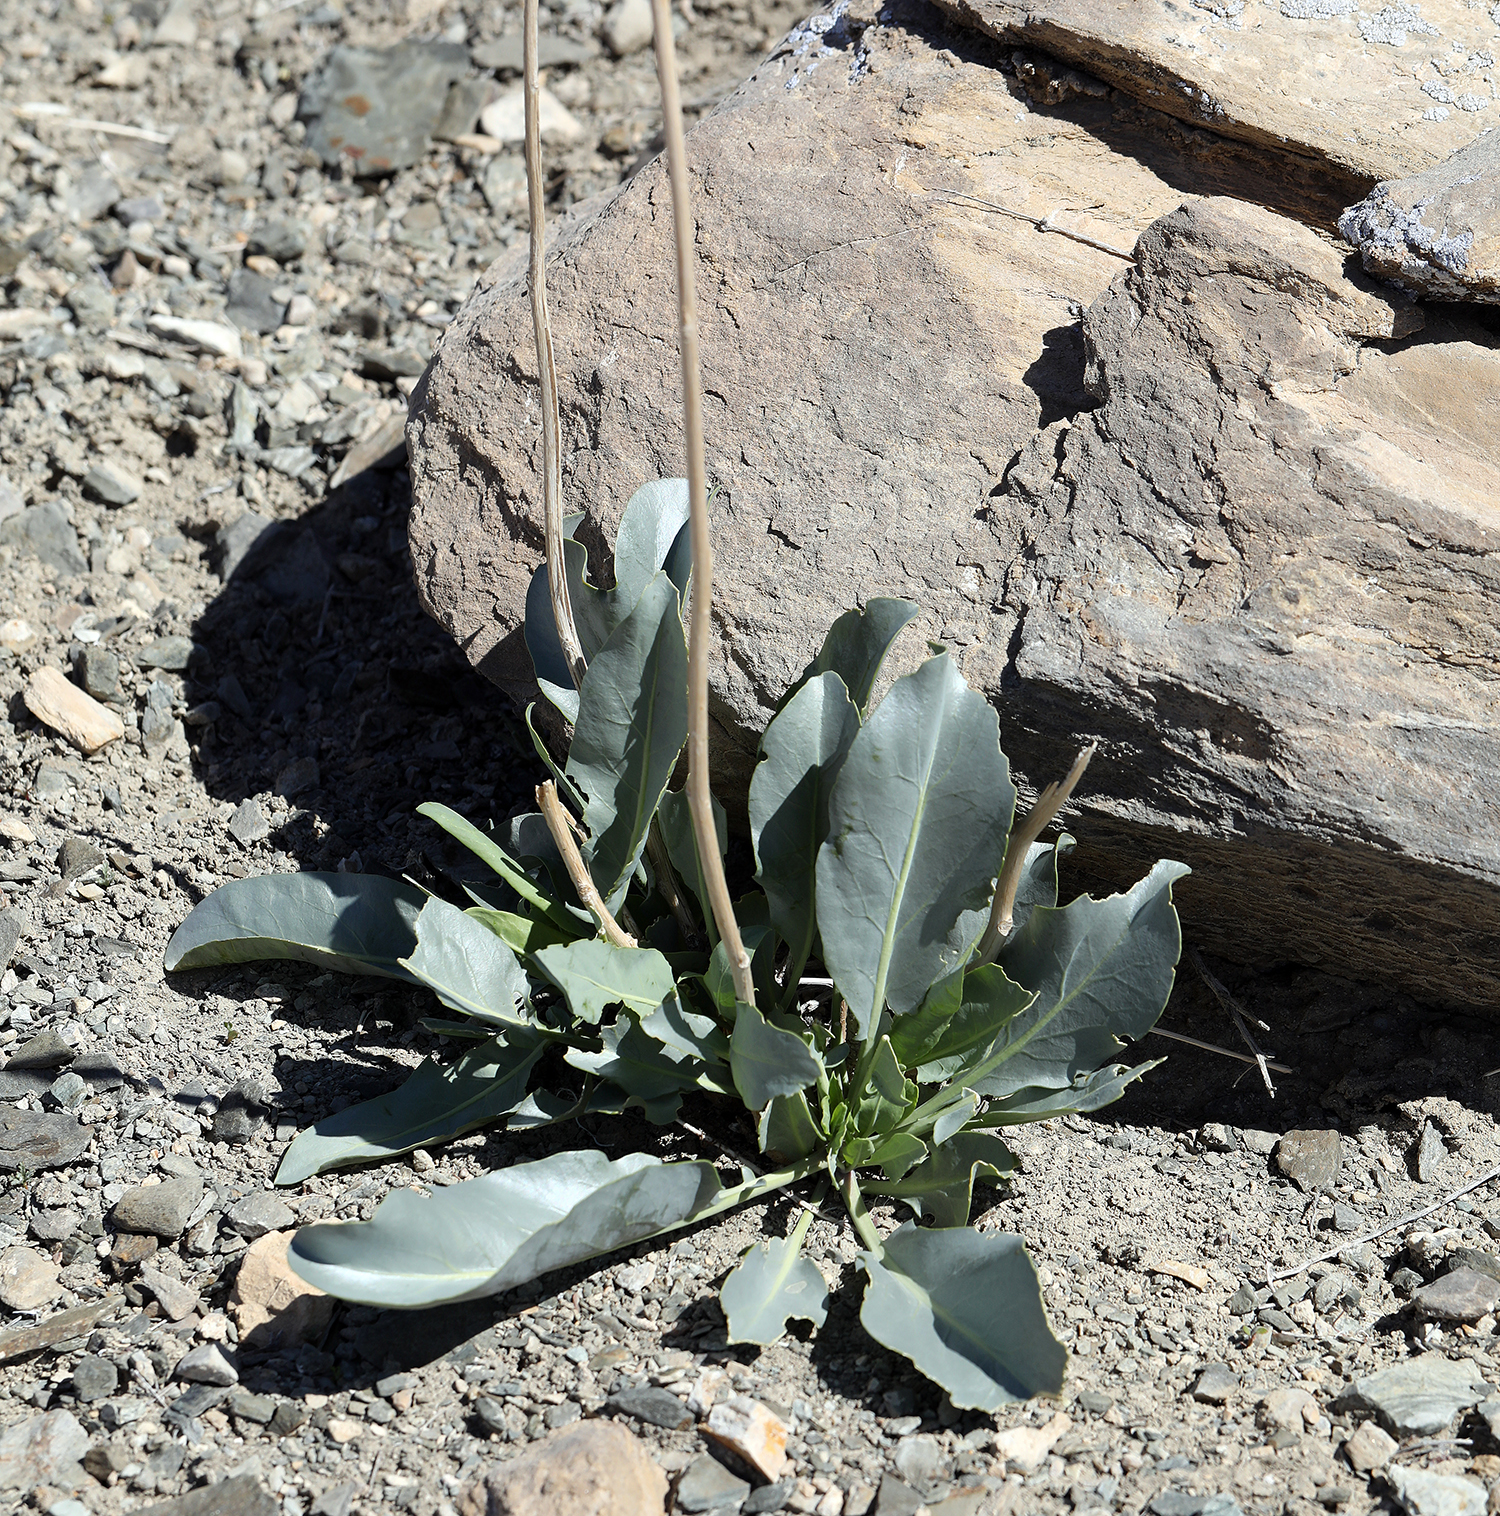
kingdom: Plantae
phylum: Tracheophyta
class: Magnoliopsida
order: Brassicales
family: Brassicaceae
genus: Stanleya
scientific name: Stanleya elata
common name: Panamint prince's plume
